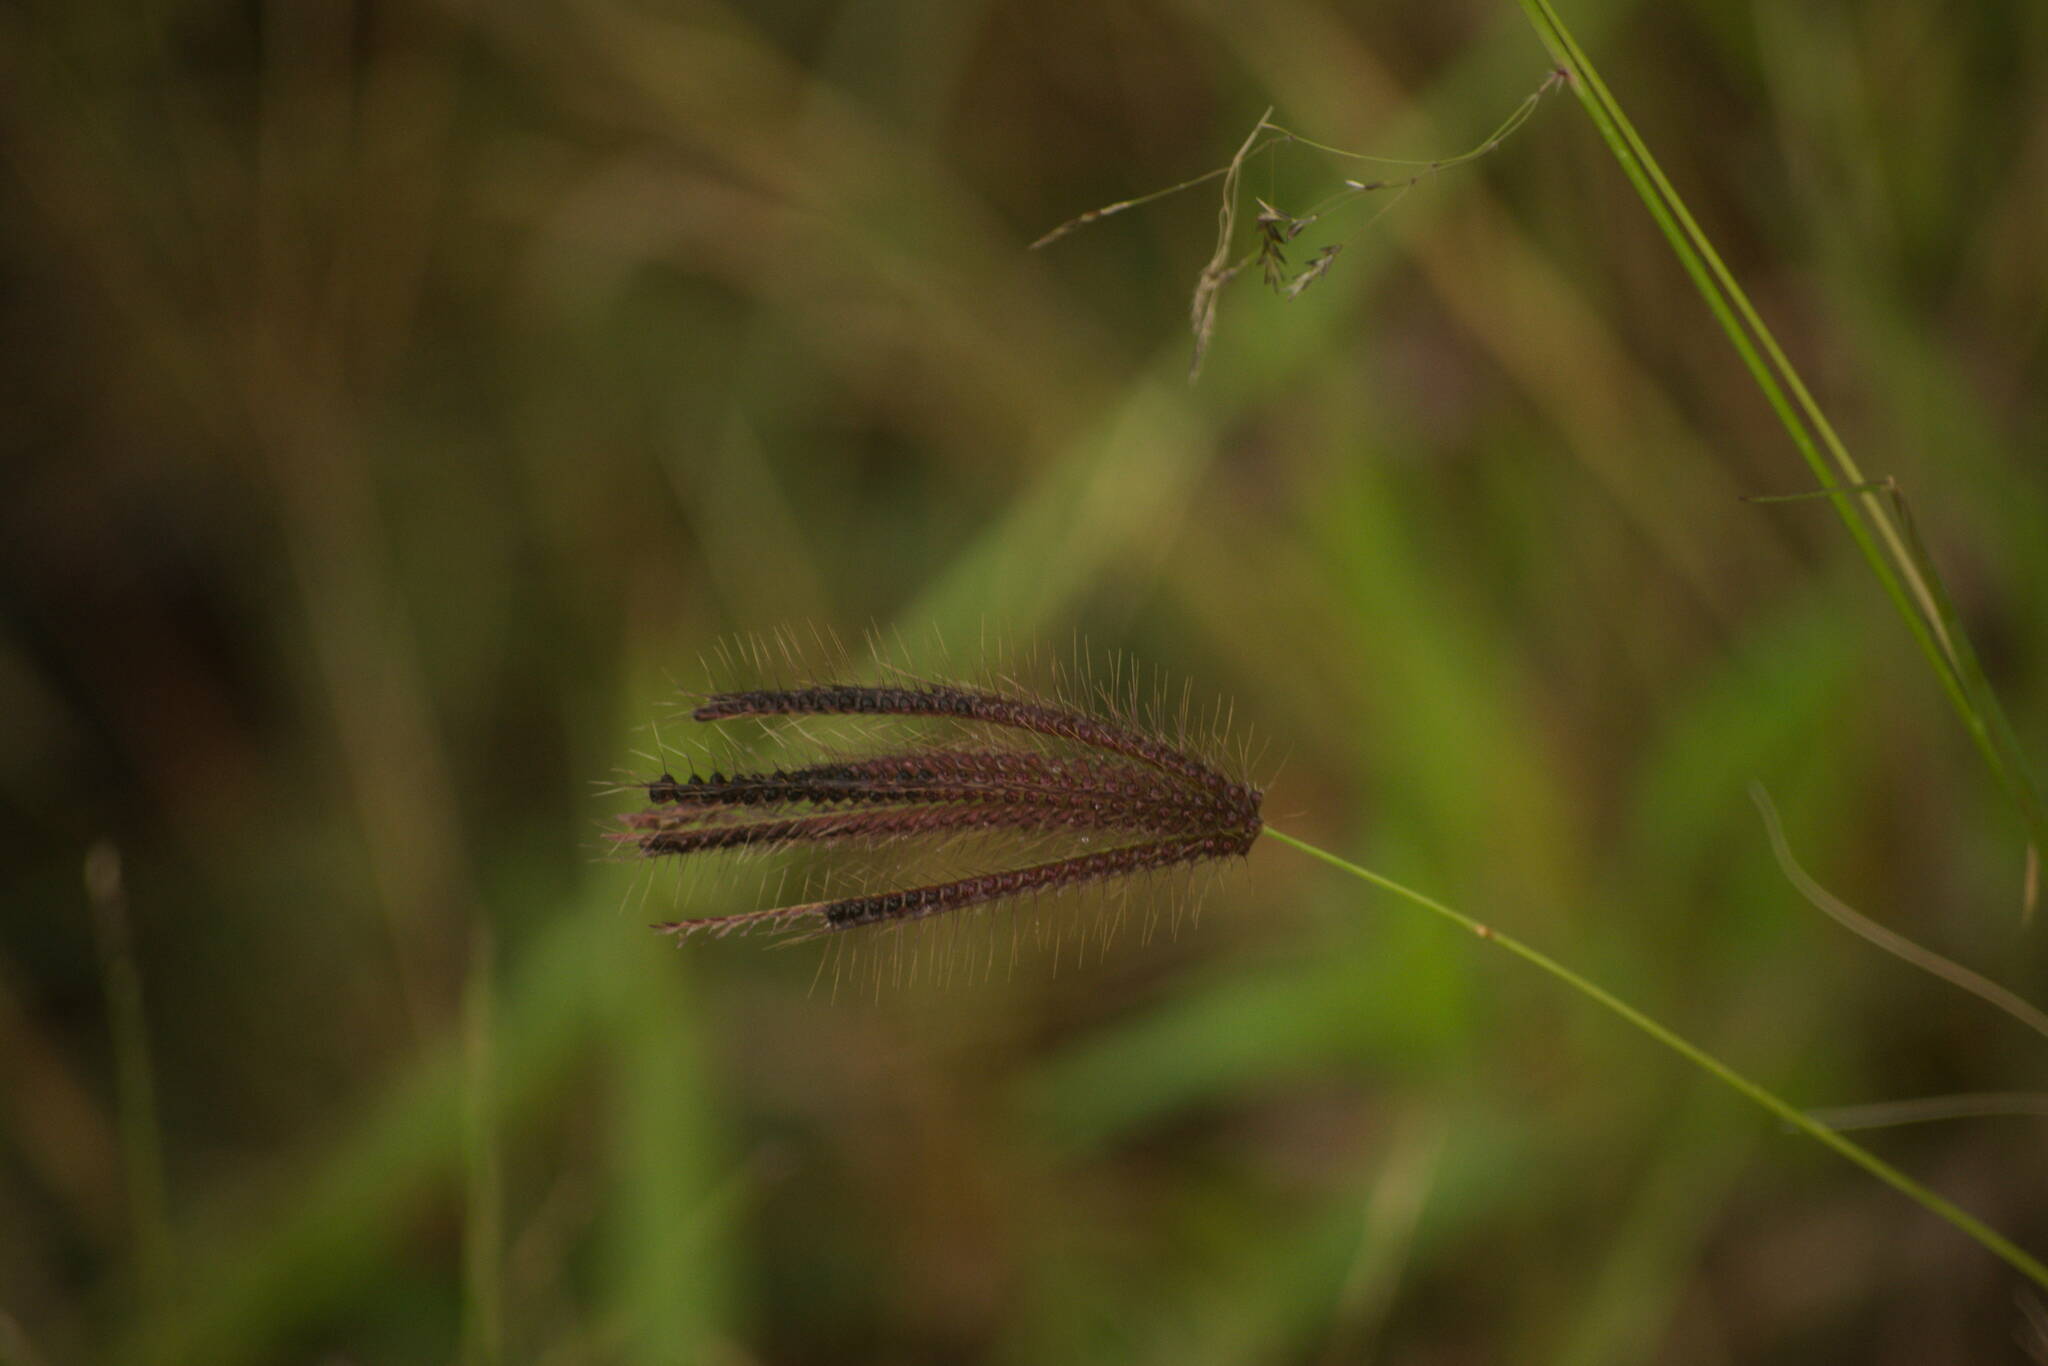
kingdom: Plantae
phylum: Tracheophyta
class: Liliopsida
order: Poales
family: Poaceae
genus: Chloris
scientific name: Chloris barbata
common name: Swollen fingergrass
